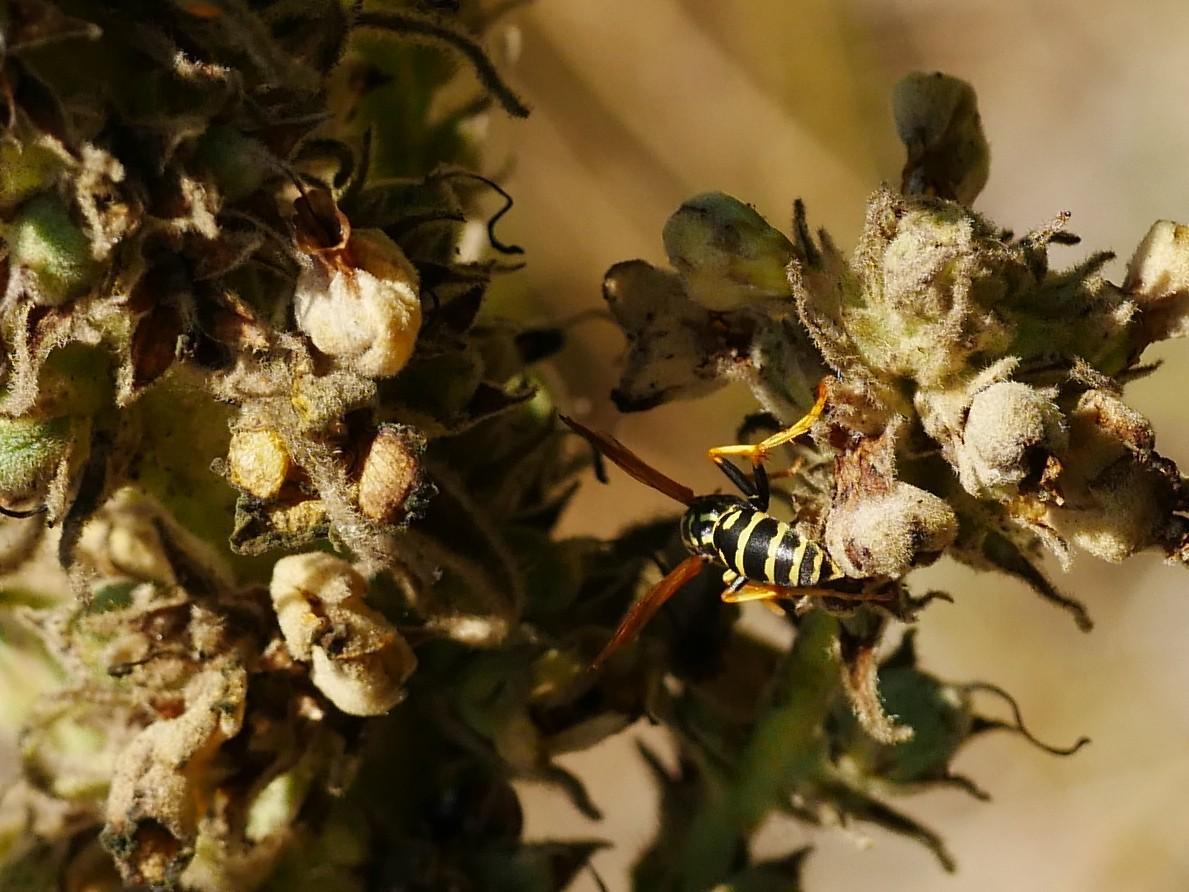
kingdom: Animalia
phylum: Arthropoda
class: Insecta
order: Hymenoptera
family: Eumenidae
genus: Polistes
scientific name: Polistes dominula
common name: Paper wasp
